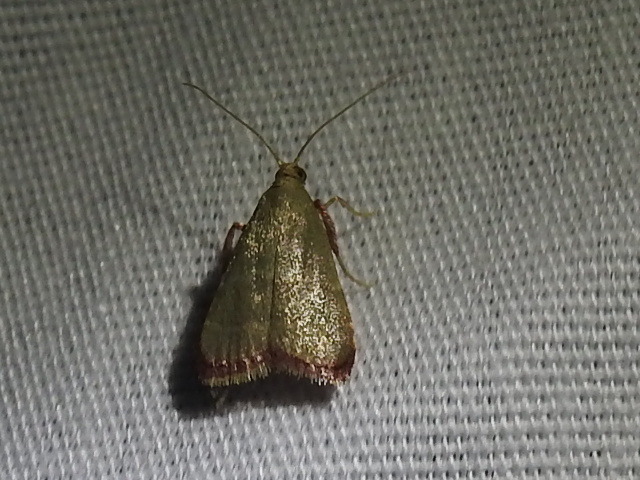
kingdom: Animalia
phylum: Arthropoda
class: Insecta
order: Lepidoptera
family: Pyralidae
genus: Arta
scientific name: Arta olivalis
